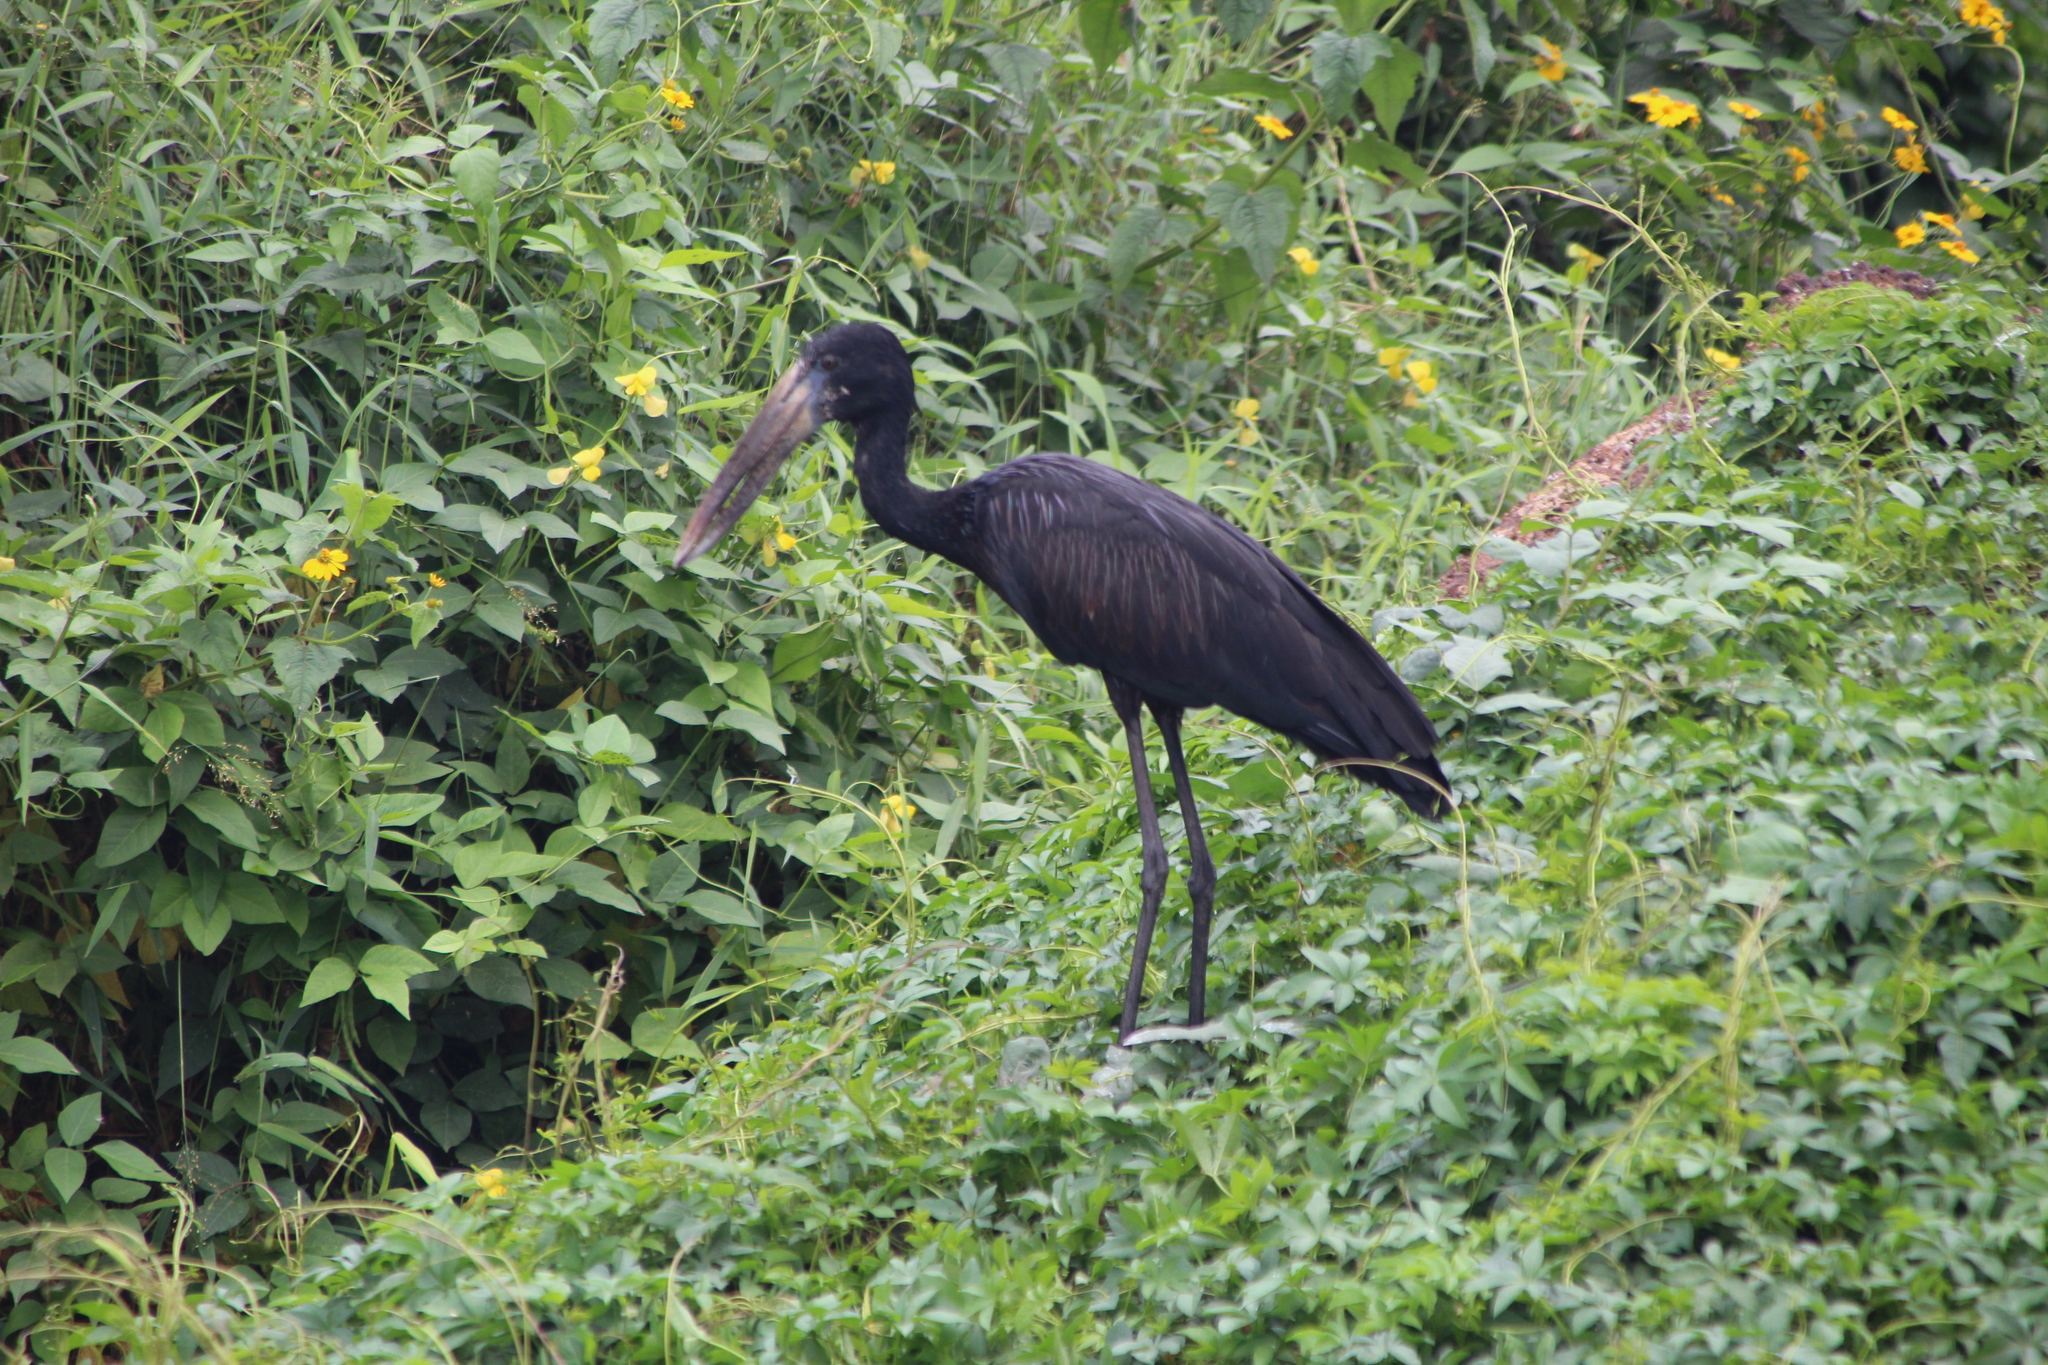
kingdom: Animalia
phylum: Chordata
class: Aves
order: Ciconiiformes
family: Ciconiidae
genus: Anastomus
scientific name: Anastomus lamelligerus
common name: African openbill
